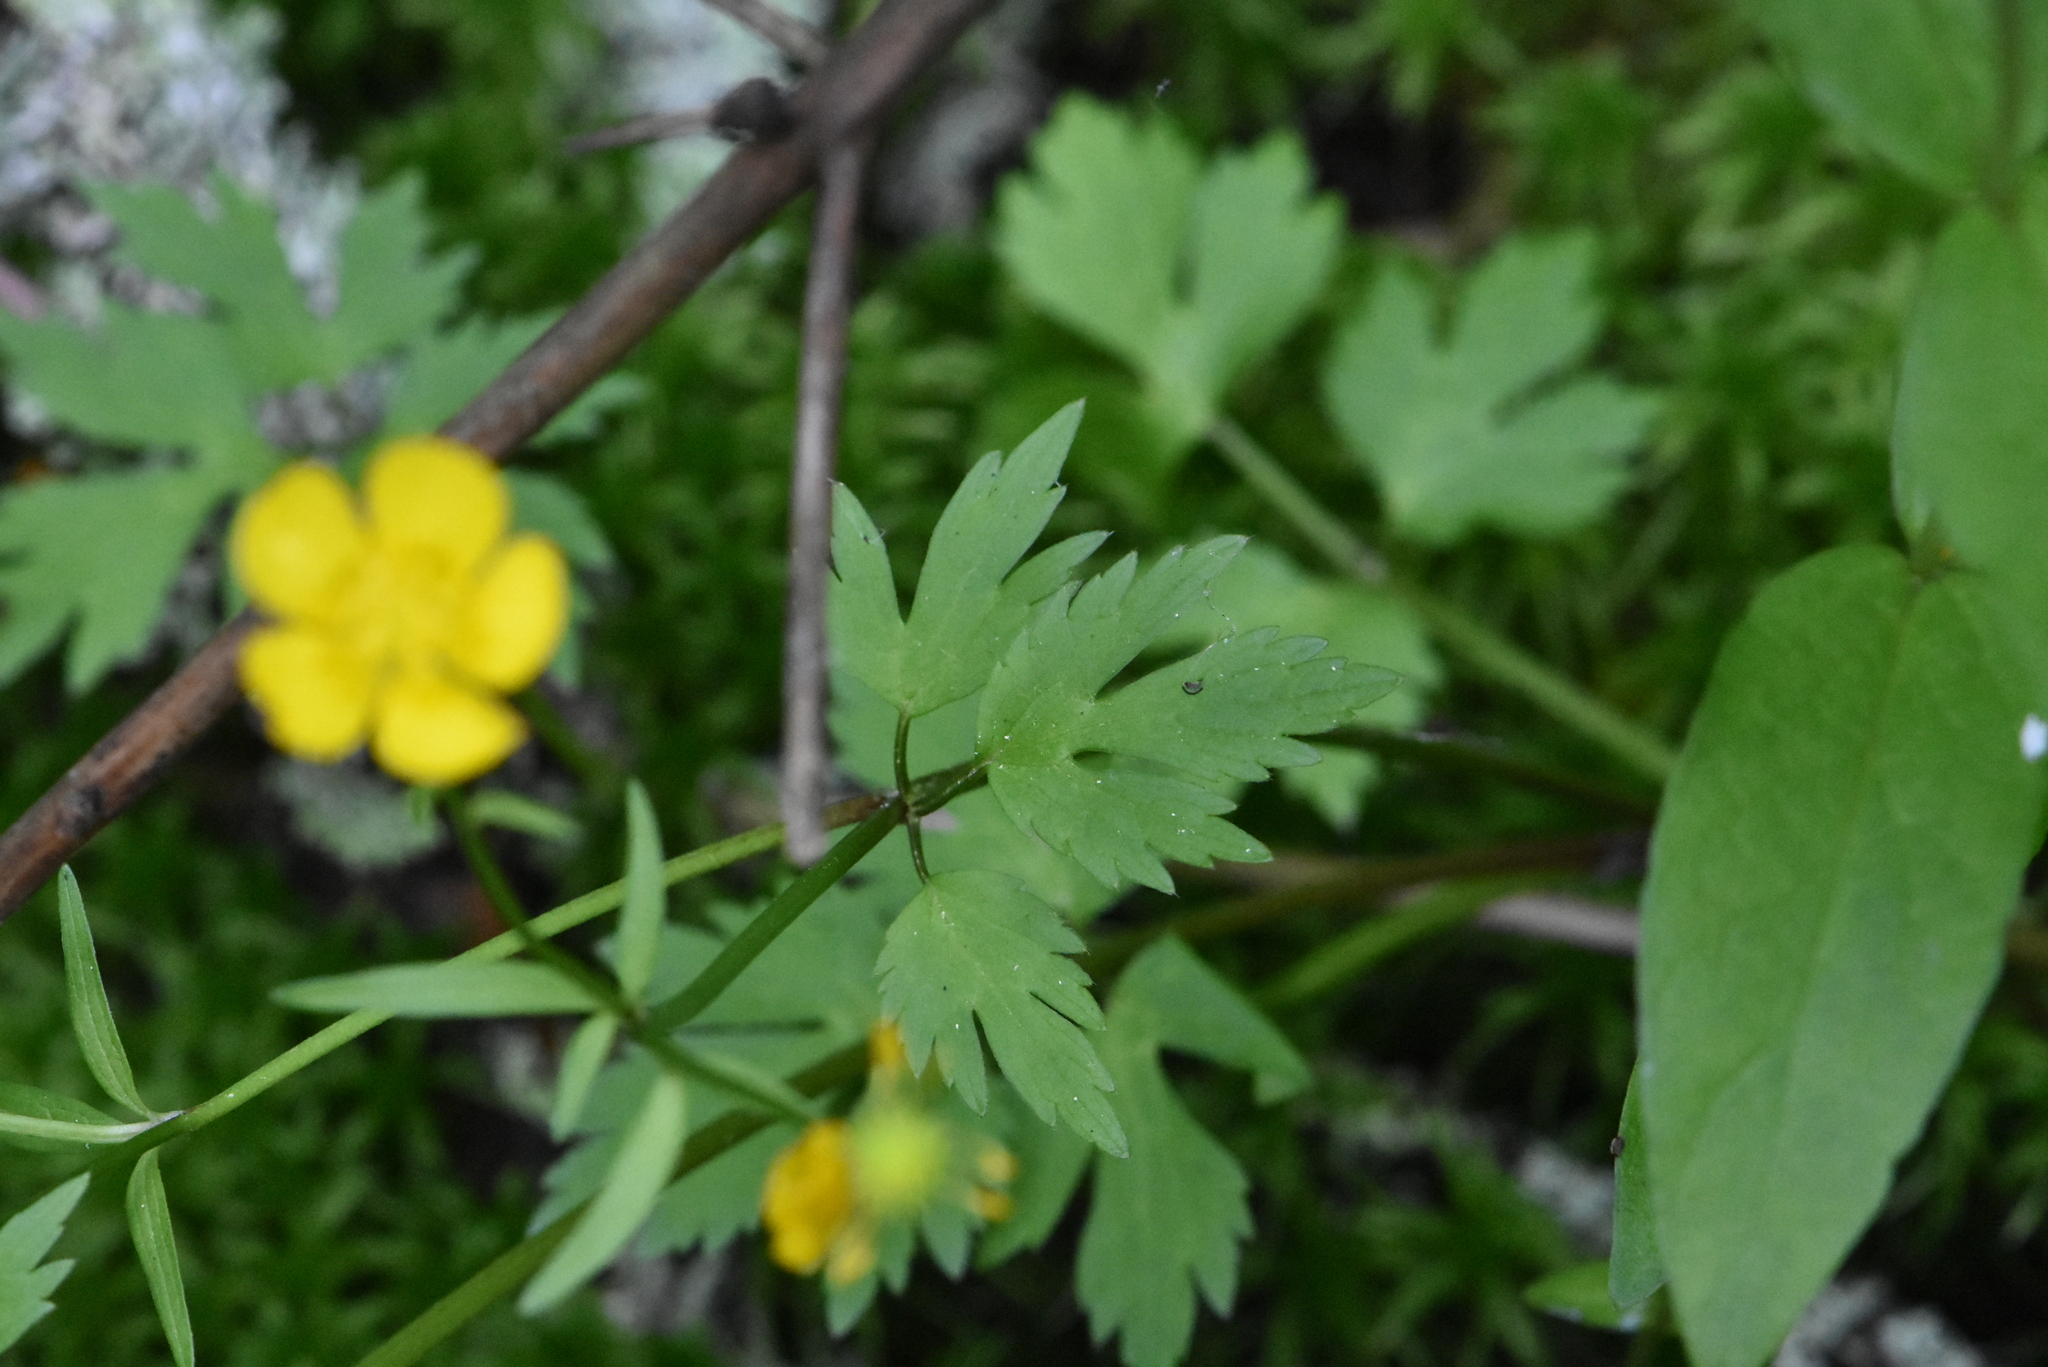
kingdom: Plantae
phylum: Tracheophyta
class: Magnoliopsida
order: Ranunculales
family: Ranunculaceae
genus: Ranunculus
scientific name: Ranunculus repens
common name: Creeping buttercup
